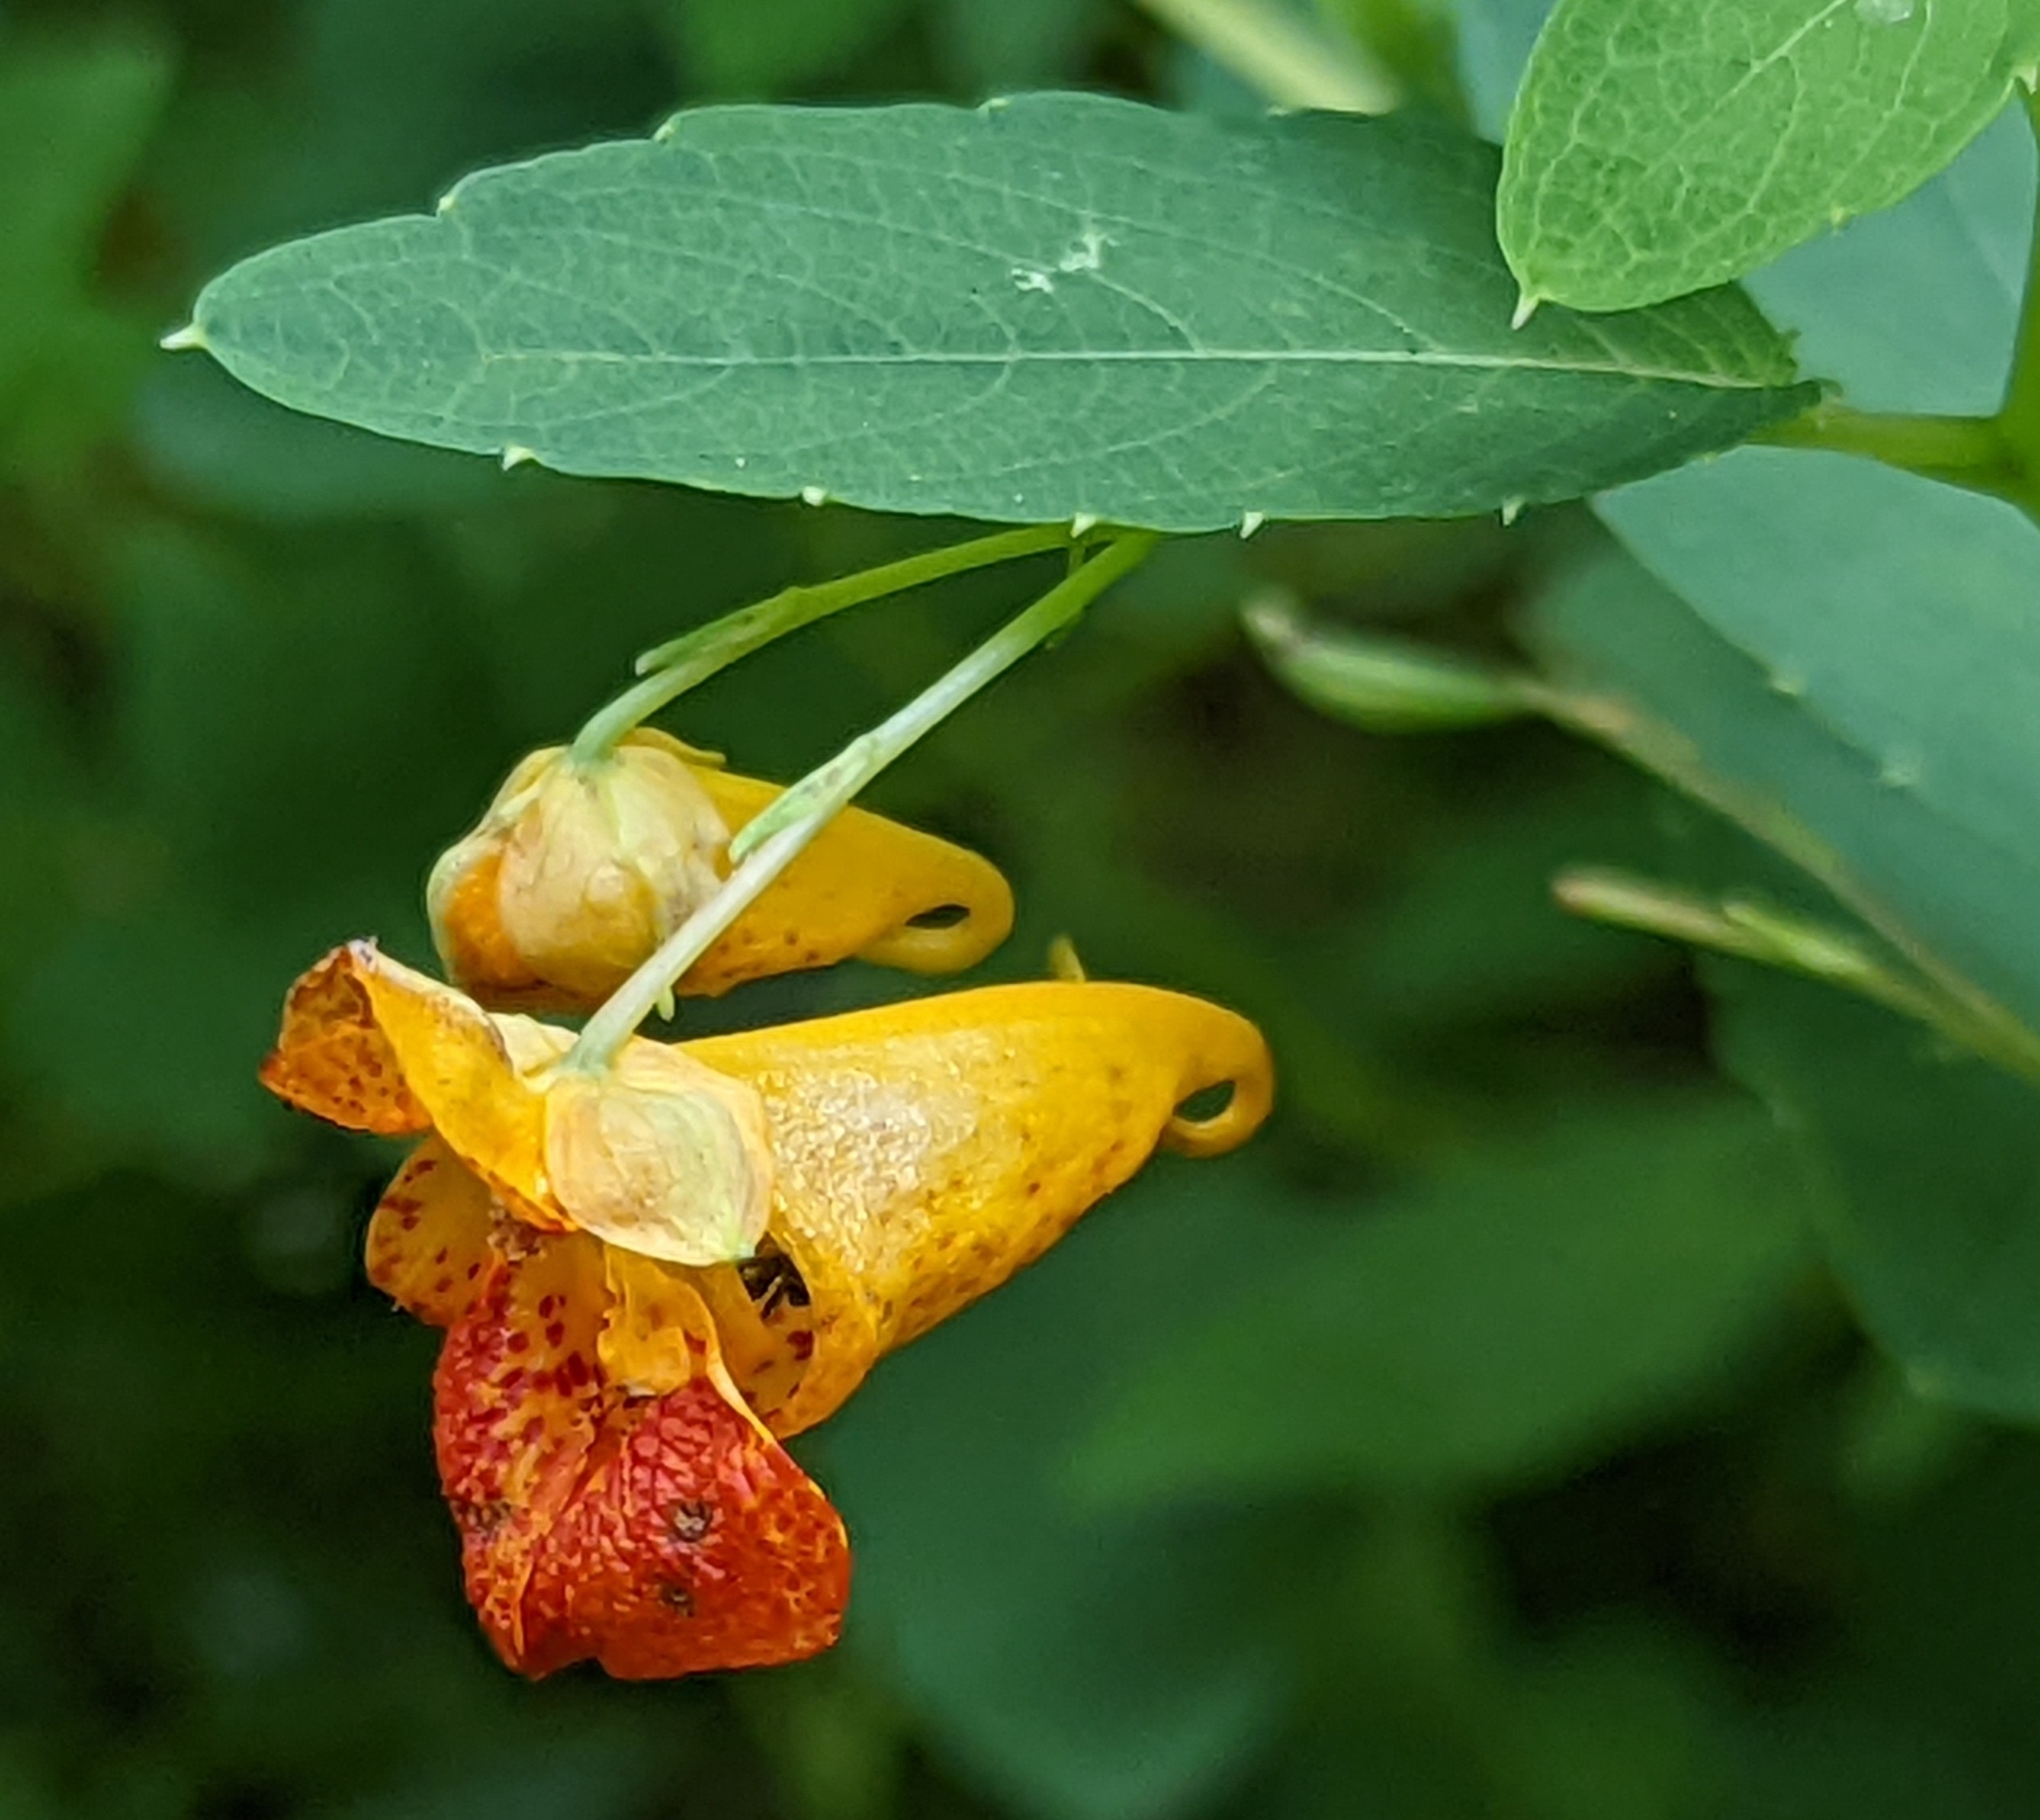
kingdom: Plantae
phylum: Tracheophyta
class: Magnoliopsida
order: Ericales
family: Balsaminaceae
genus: Impatiens
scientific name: Impatiens capensis
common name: Orange balsam
